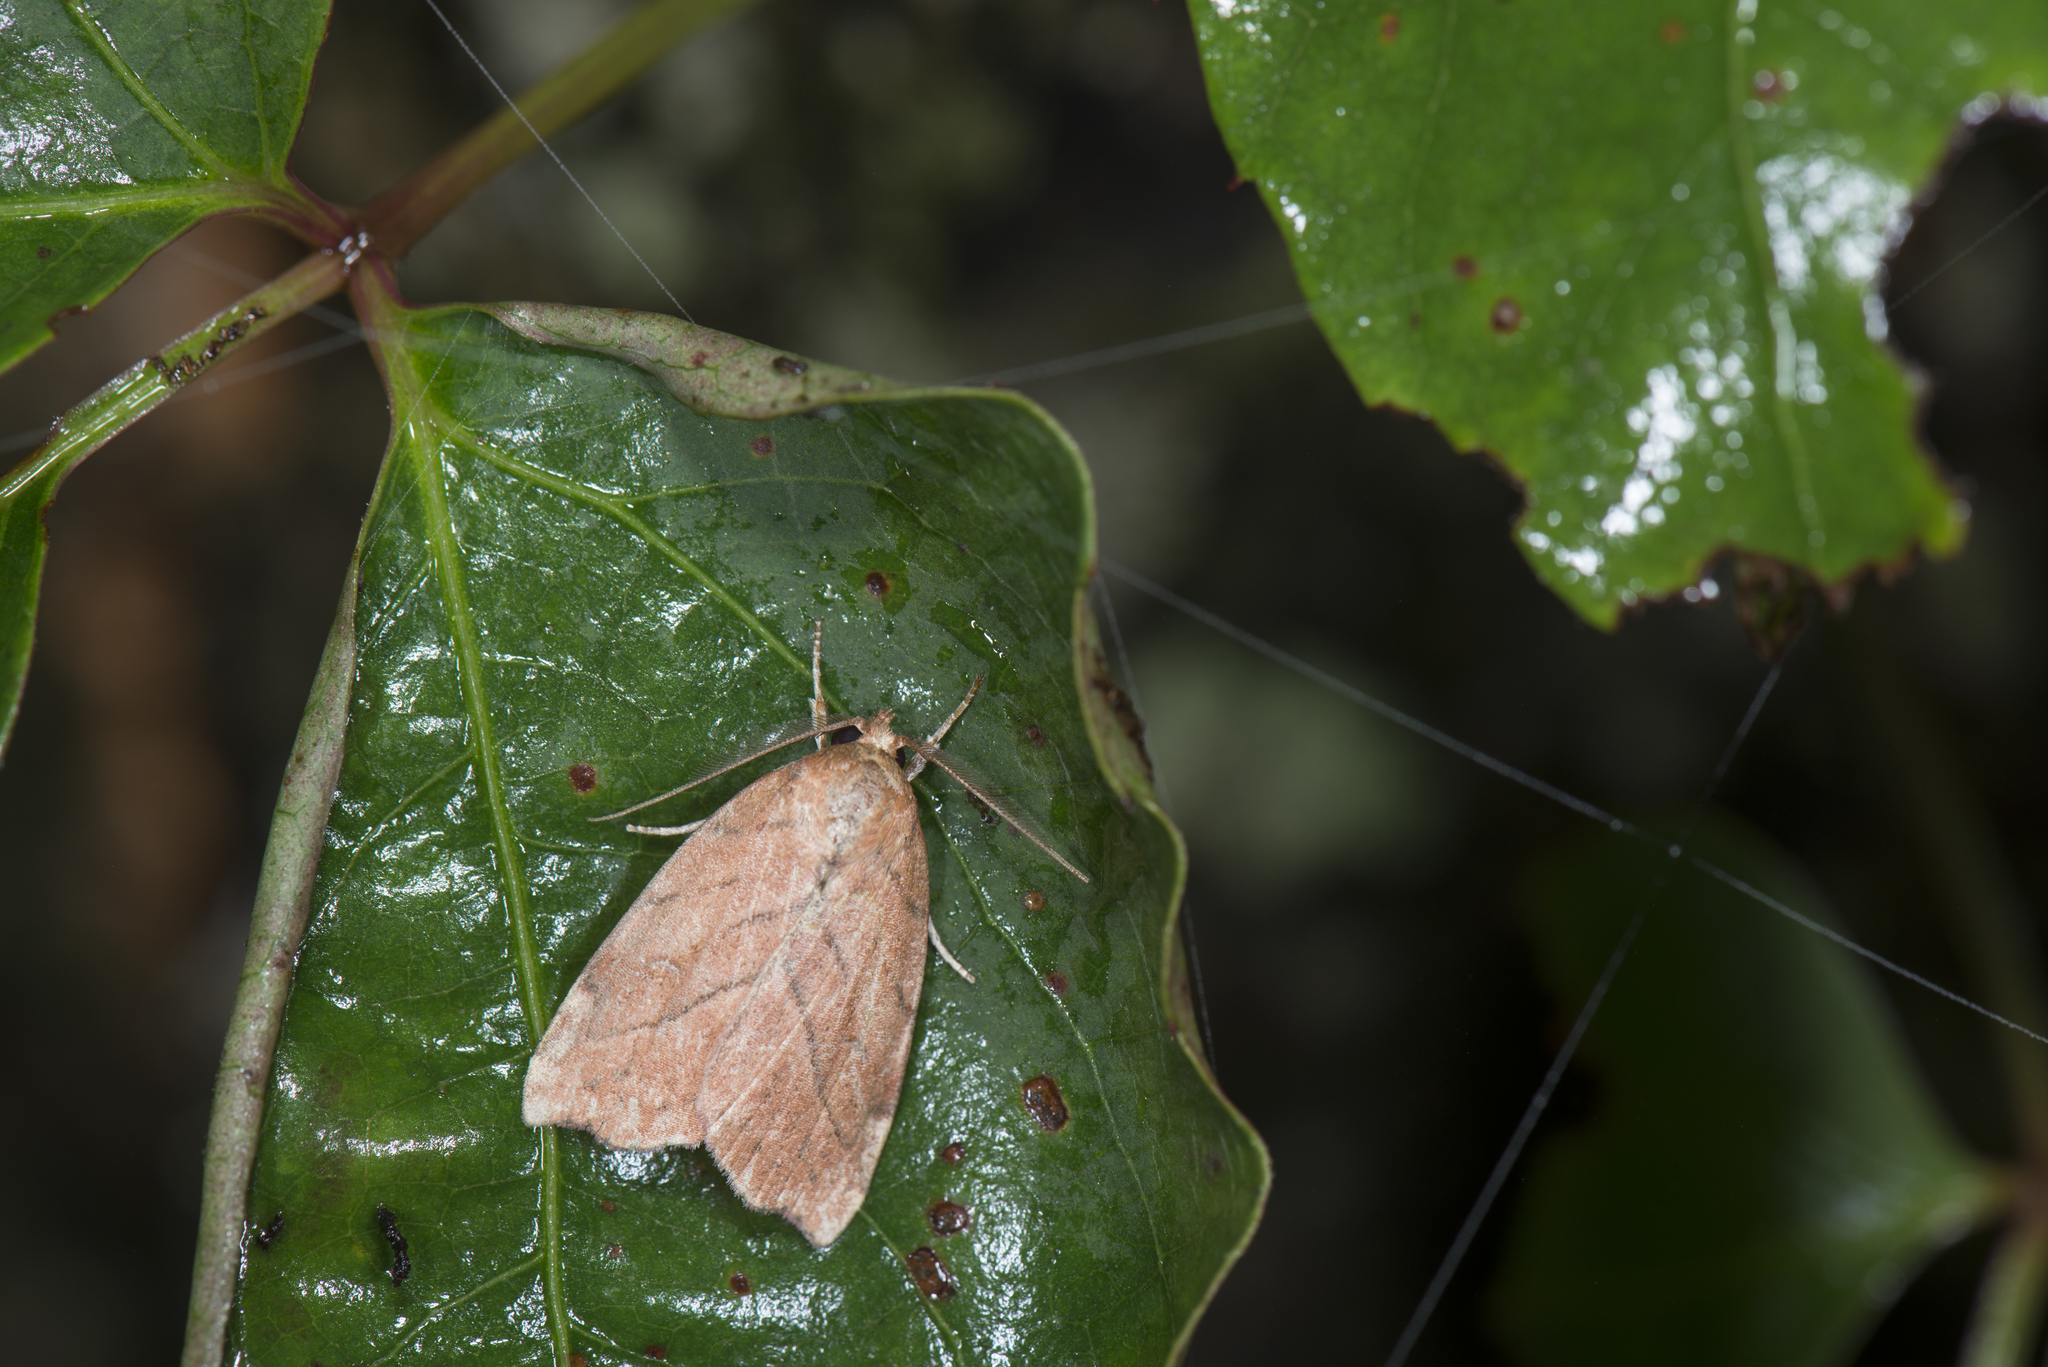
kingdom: Animalia
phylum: Arthropoda
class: Insecta
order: Lepidoptera
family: Nolidae
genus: Macrochthonia
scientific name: Macrochthonia fervens
